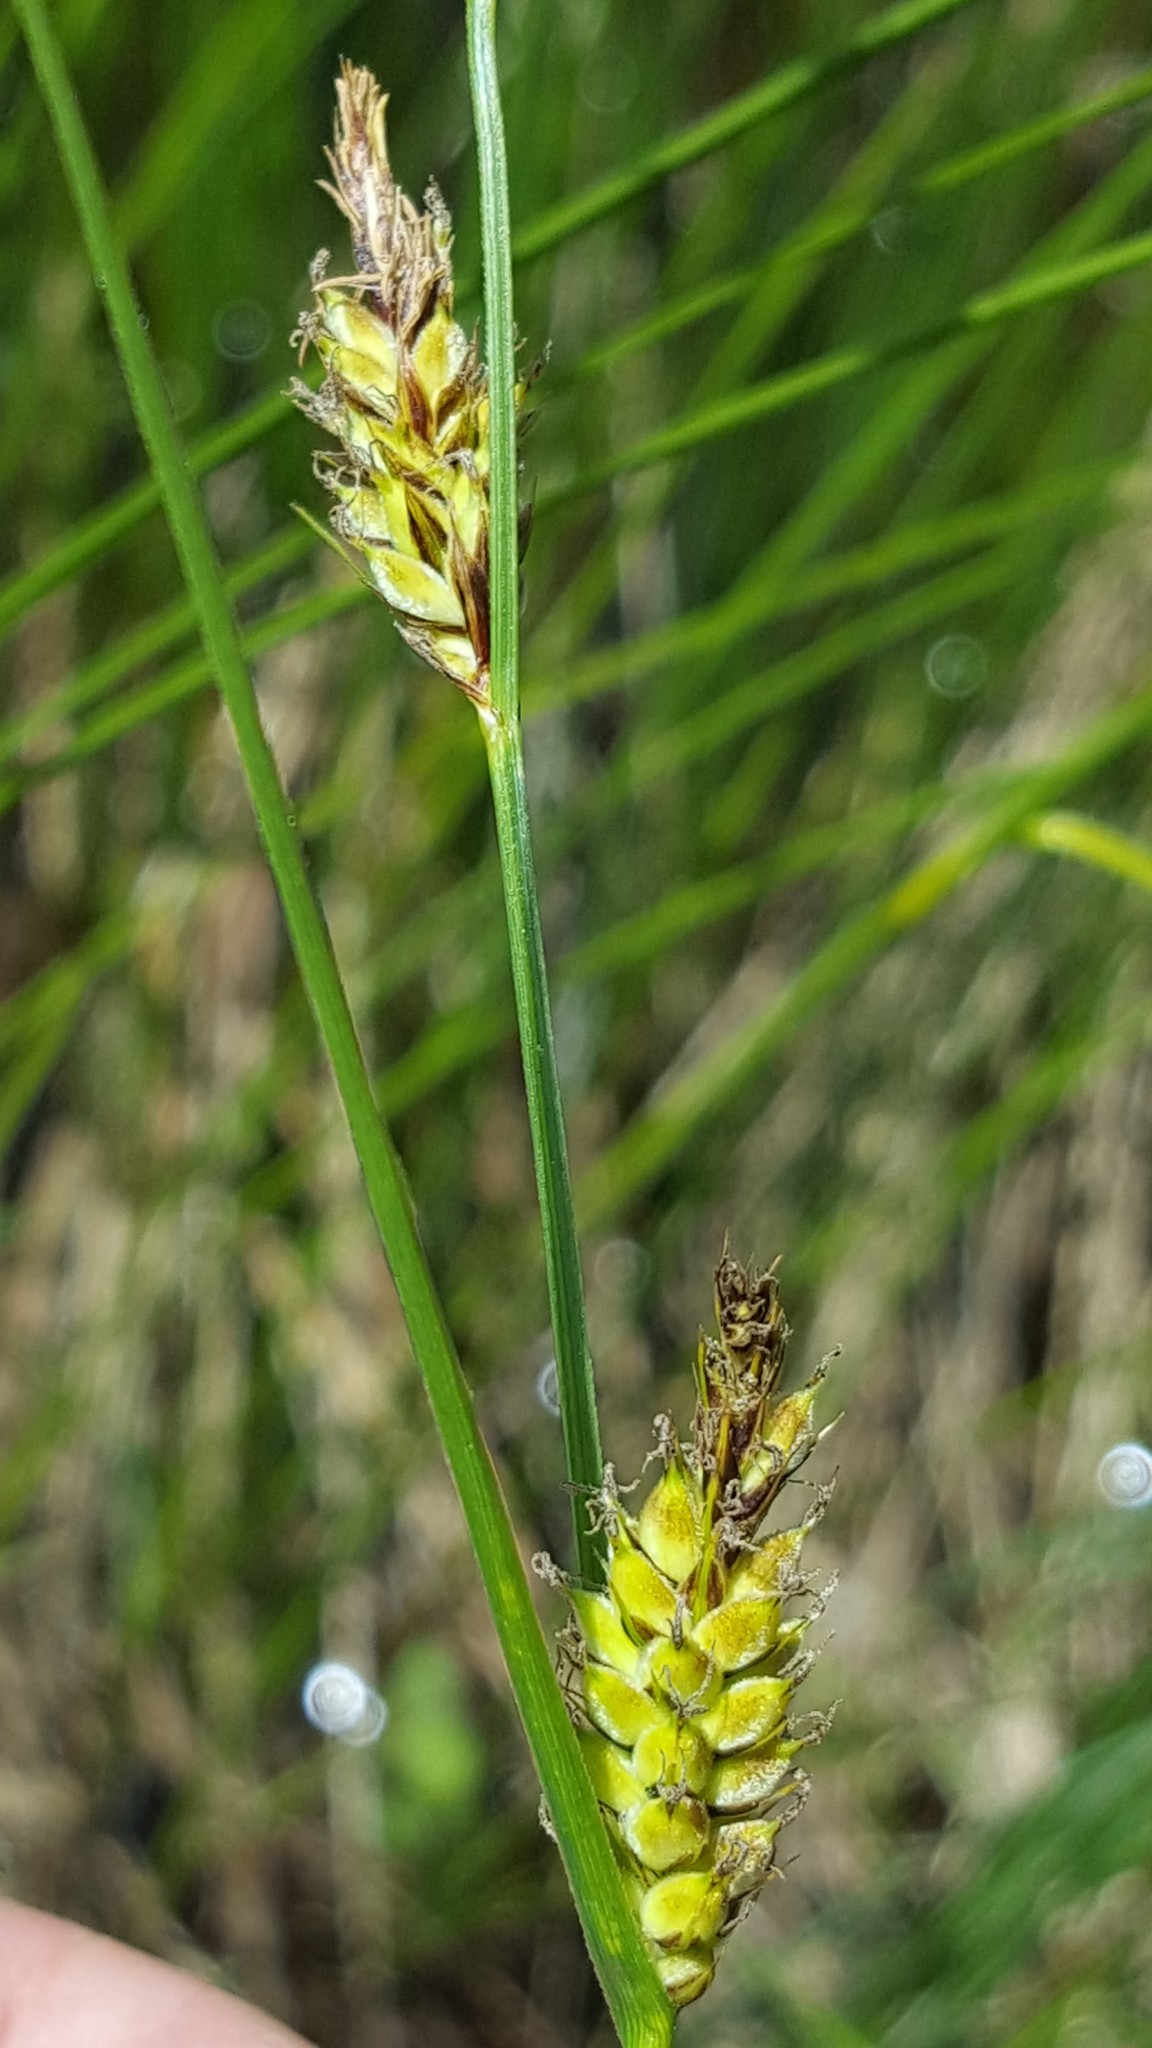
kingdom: Plantae
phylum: Tracheophyta
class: Liliopsida
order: Poales
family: Cyperaceae
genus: Carex
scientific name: Carex lasiocarpa
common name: Slender sedge
